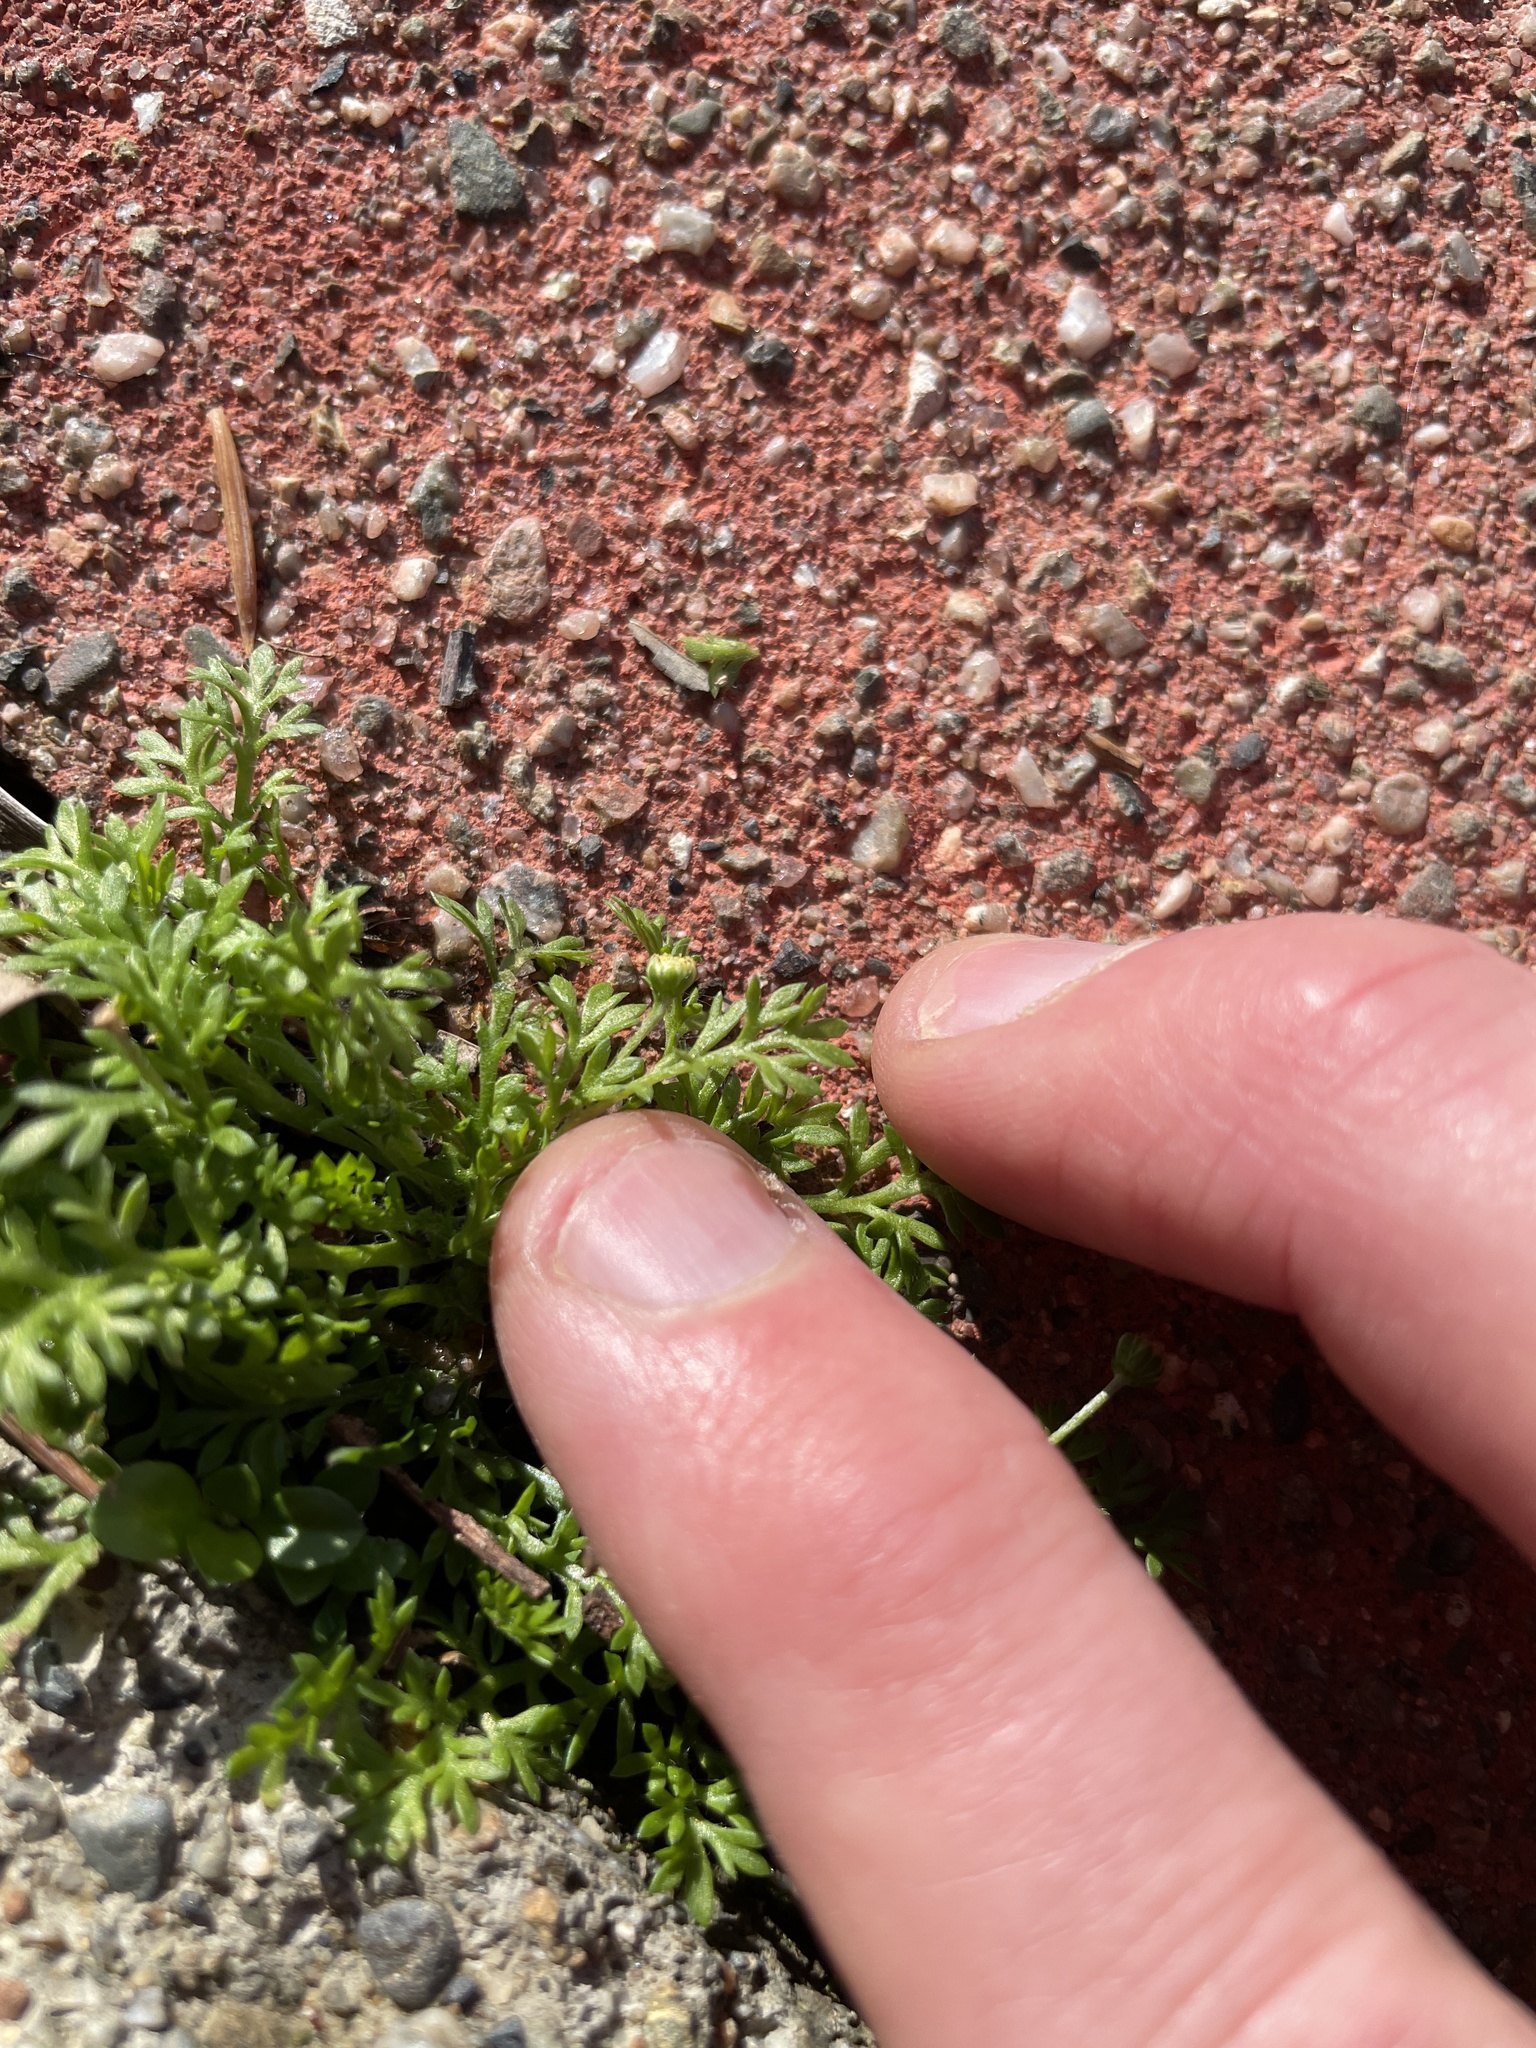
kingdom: Plantae
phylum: Tracheophyta
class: Magnoliopsida
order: Asterales
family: Asteraceae
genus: Cotula
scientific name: Cotula australis
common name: Australian waterbuttons
